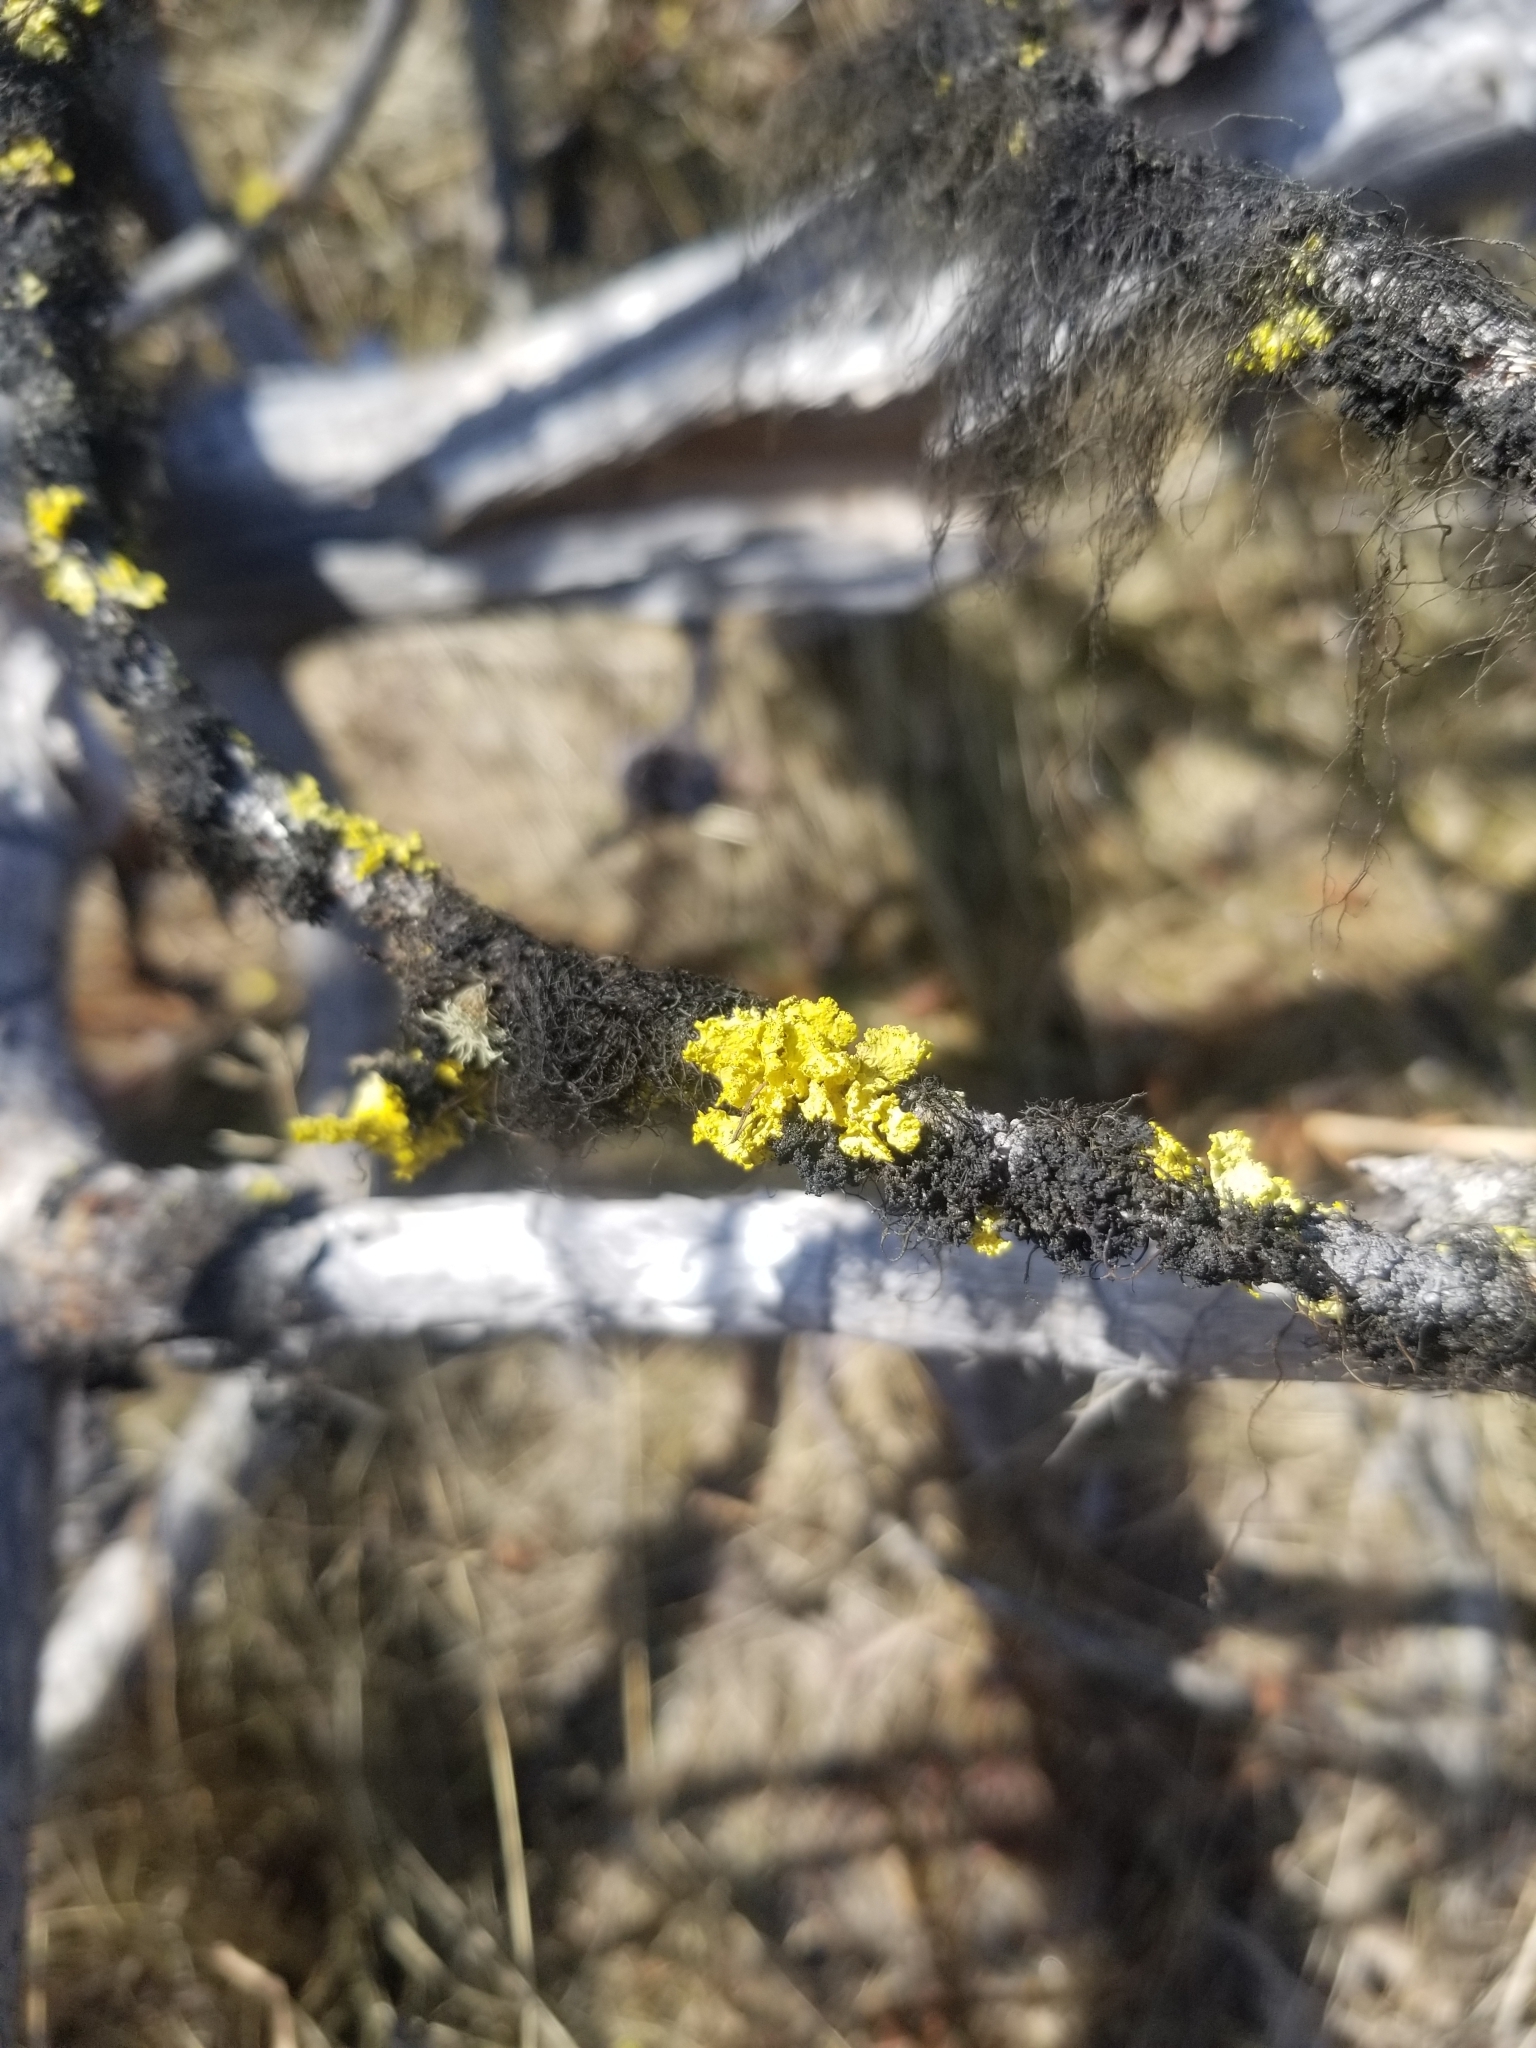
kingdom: Fungi
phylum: Ascomycota
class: Lecanoromycetes
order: Lecanorales
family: Parmeliaceae
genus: Vulpicida
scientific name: Vulpicida canadensis
